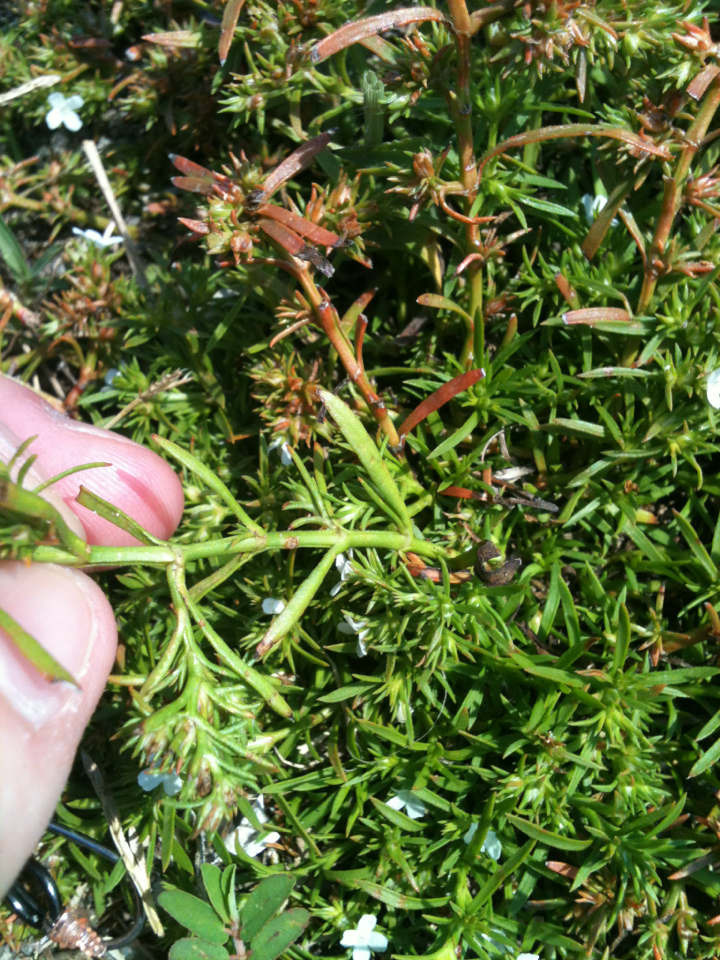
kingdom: Plantae
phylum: Tracheophyta
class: Magnoliopsida
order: Lamiales
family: Tetrachondraceae
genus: Polypremum
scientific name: Polypremum procumbens
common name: Juniper-leaf
